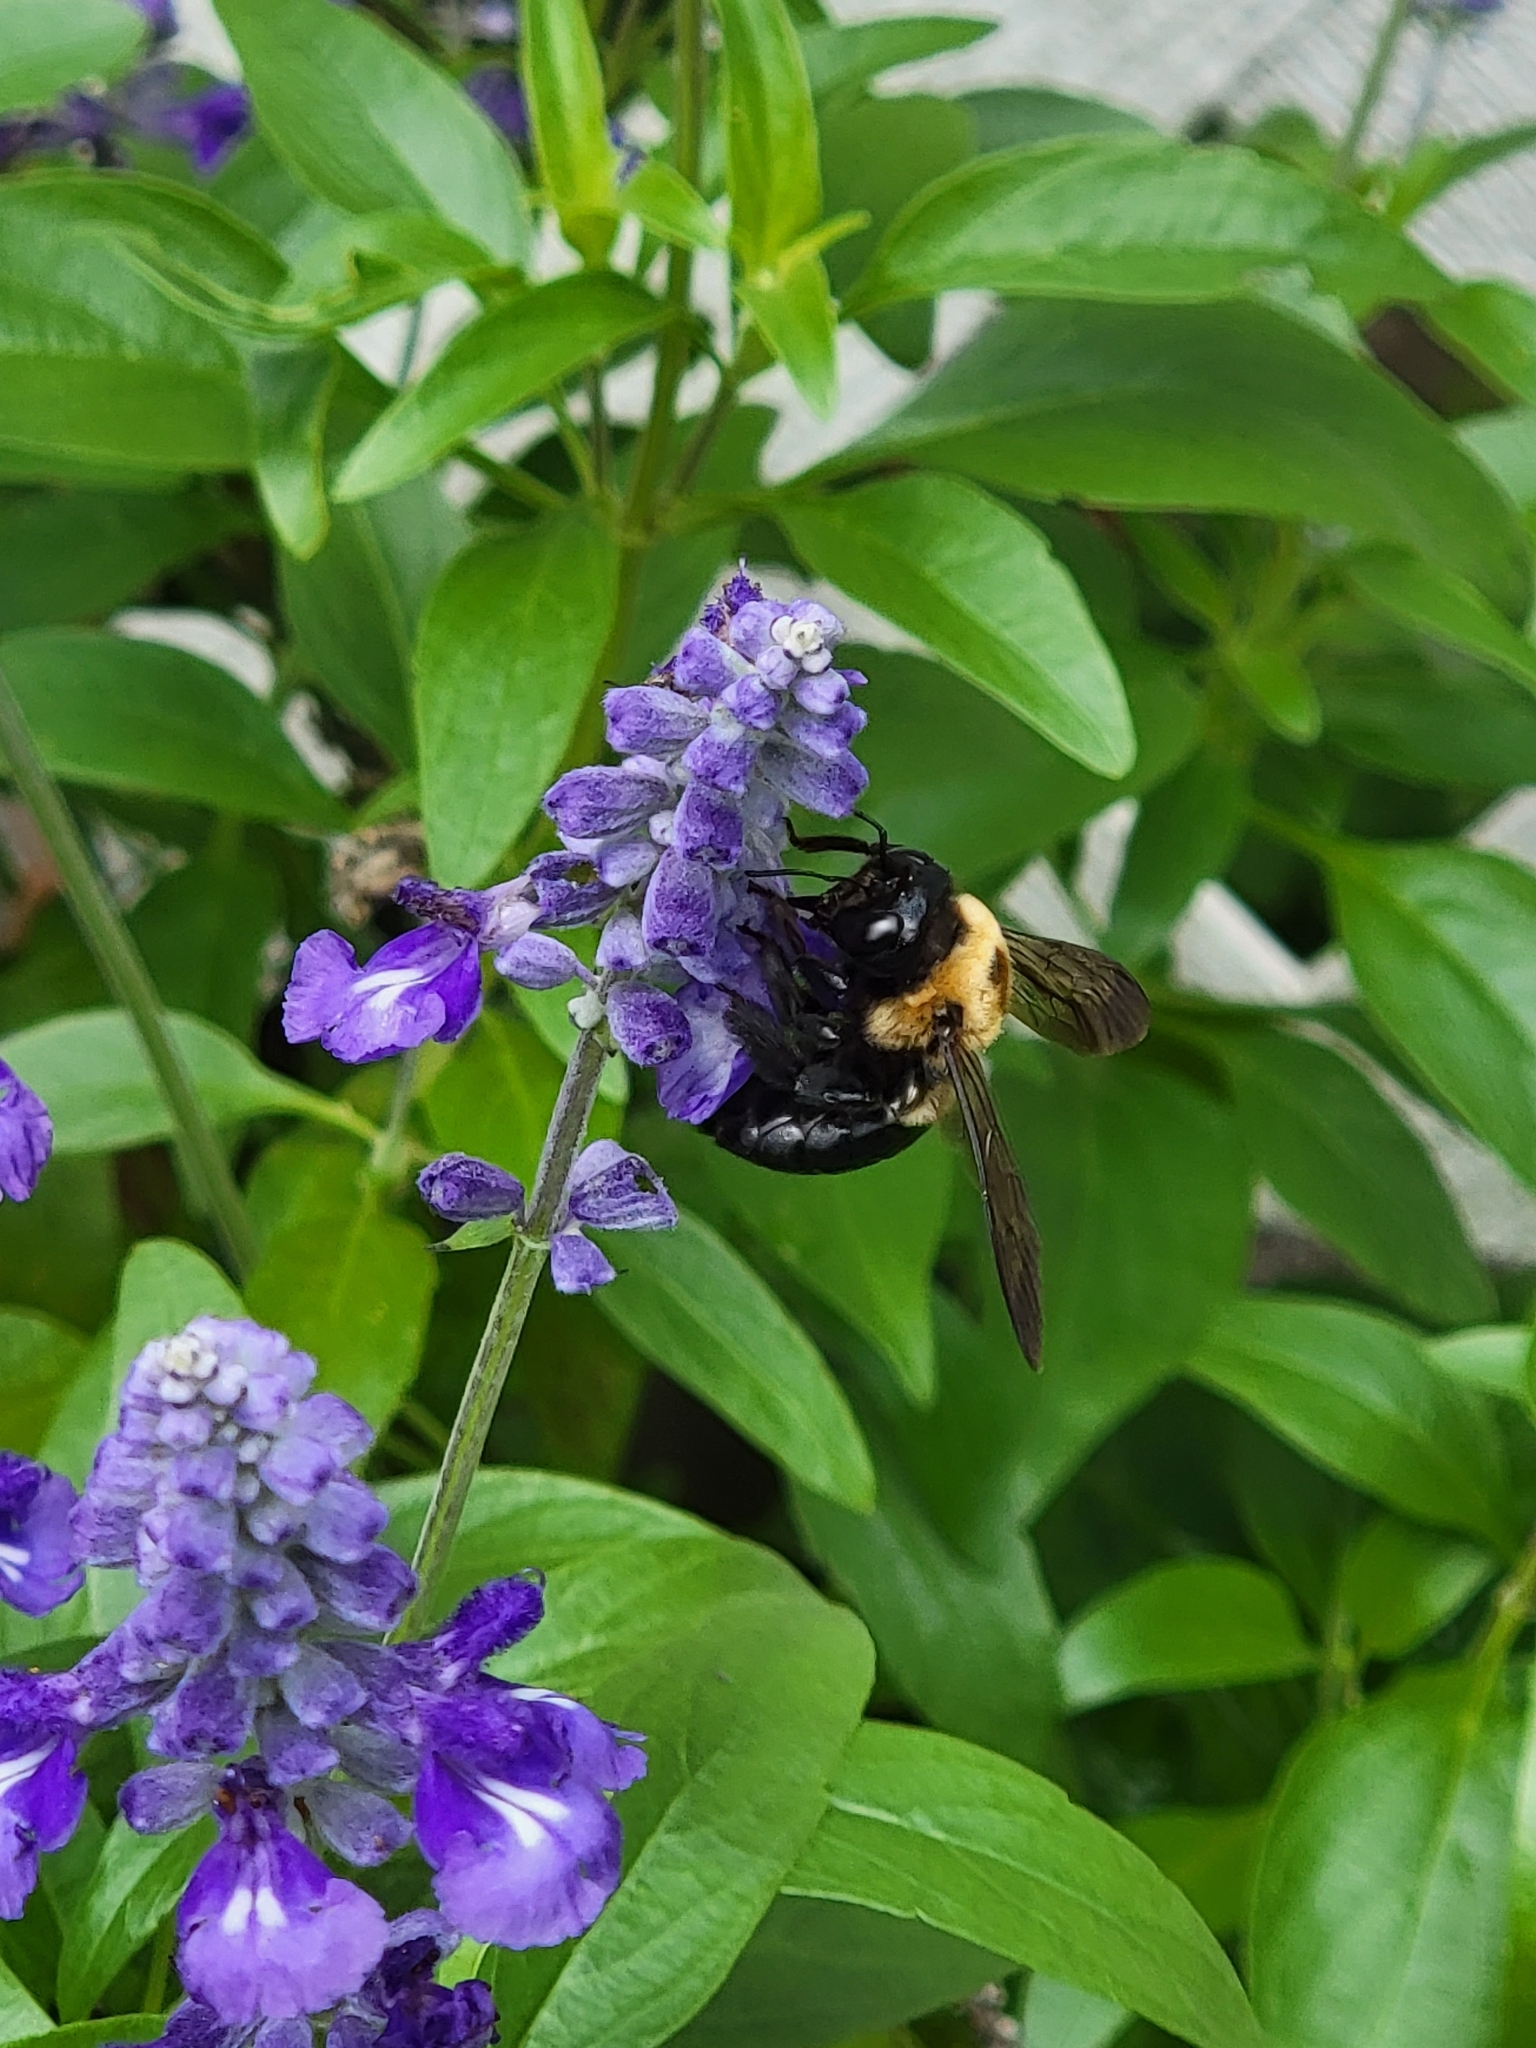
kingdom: Animalia
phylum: Arthropoda
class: Insecta
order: Hymenoptera
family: Apidae
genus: Xylocopa
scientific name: Xylocopa virginica
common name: Carpenter bee
